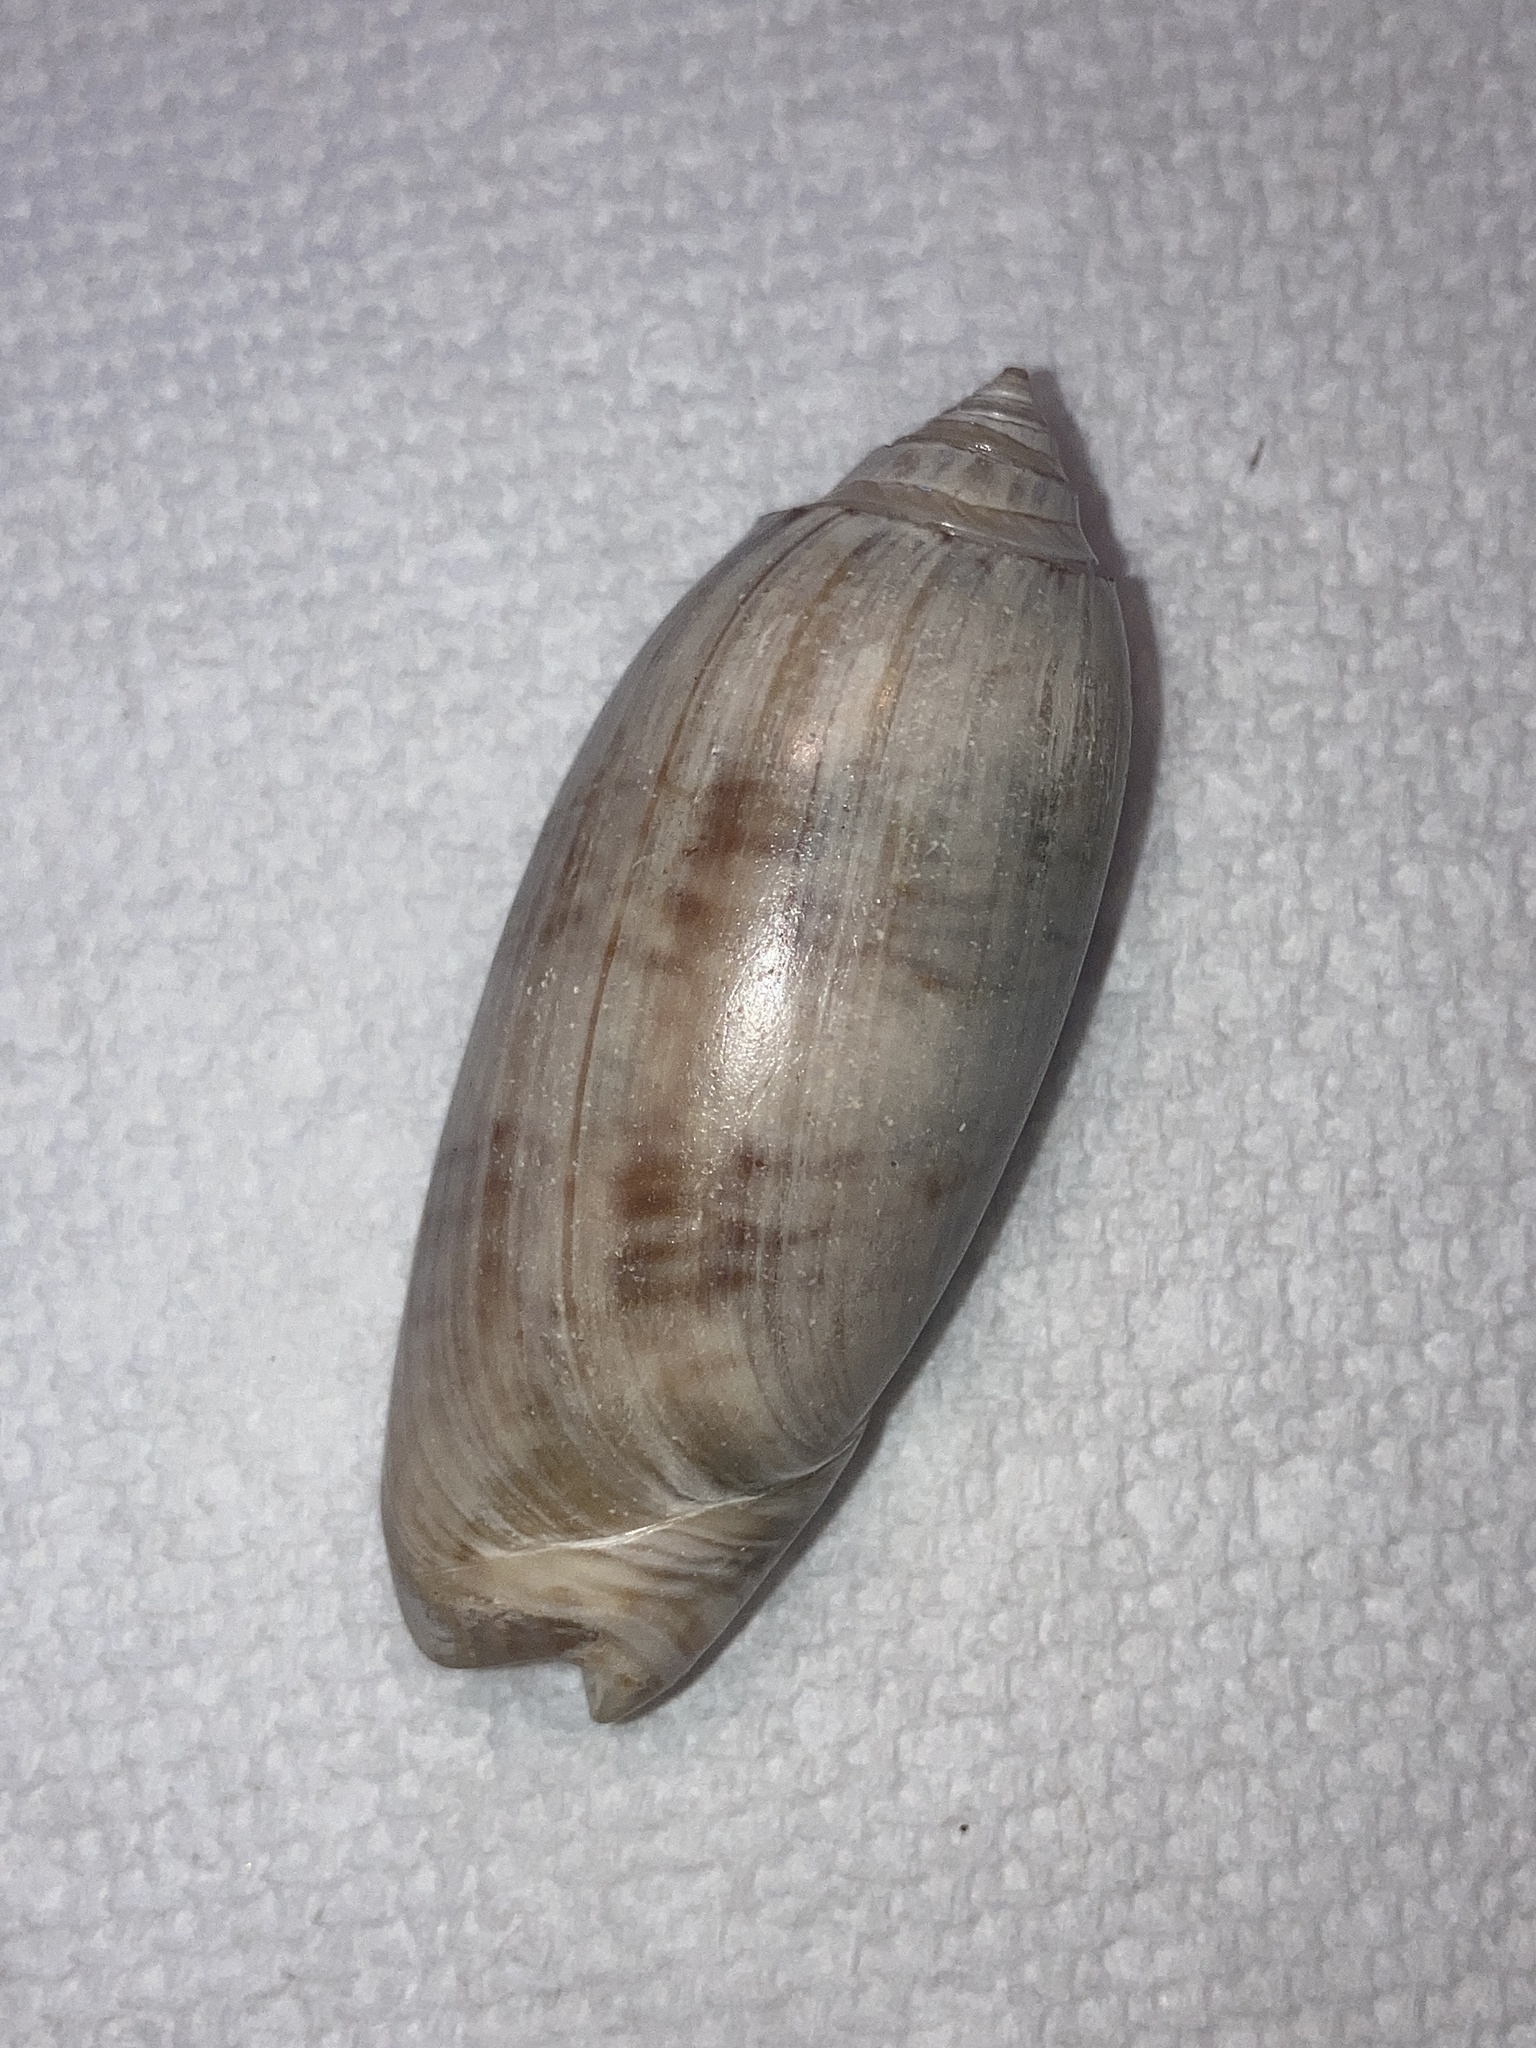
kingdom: Animalia
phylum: Mollusca
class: Gastropoda
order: Neogastropoda
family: Olividae
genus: Oliva
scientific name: Oliva sayana
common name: Lettered olive
